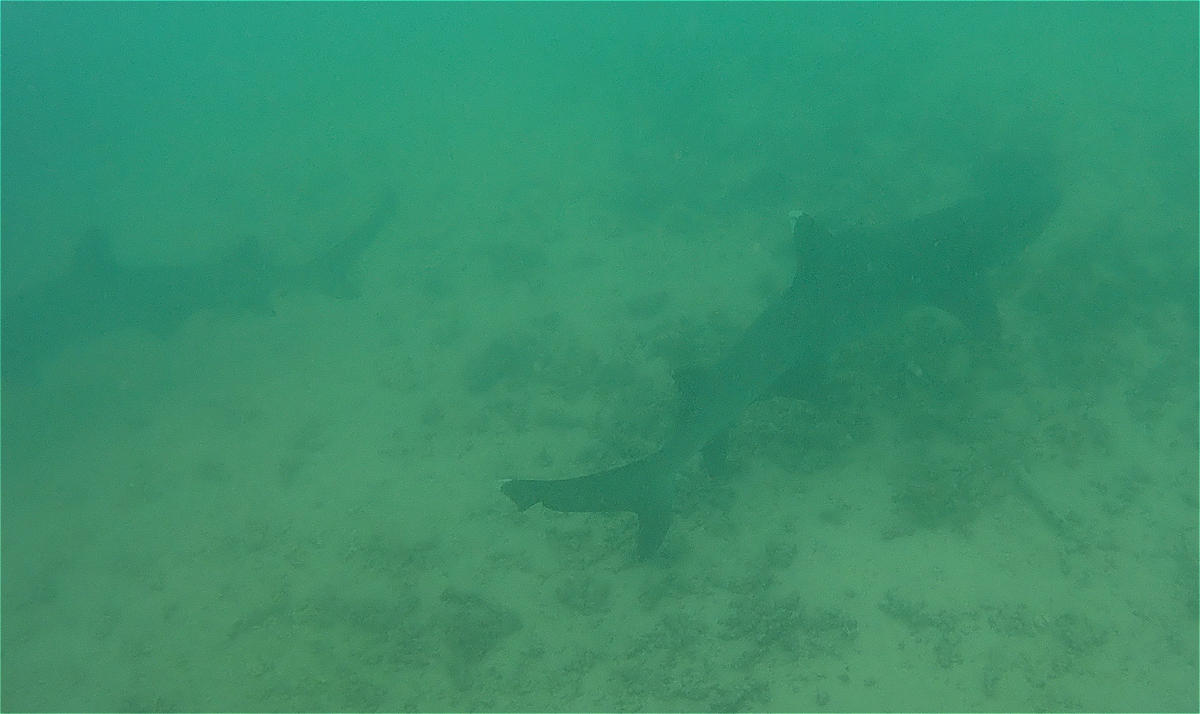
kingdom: Animalia
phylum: Chordata
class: Elasmobranchii
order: Carcharhiniformes
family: Carcharhinidae
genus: Triaenodon
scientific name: Triaenodon obesus
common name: Whitetip reef shark
